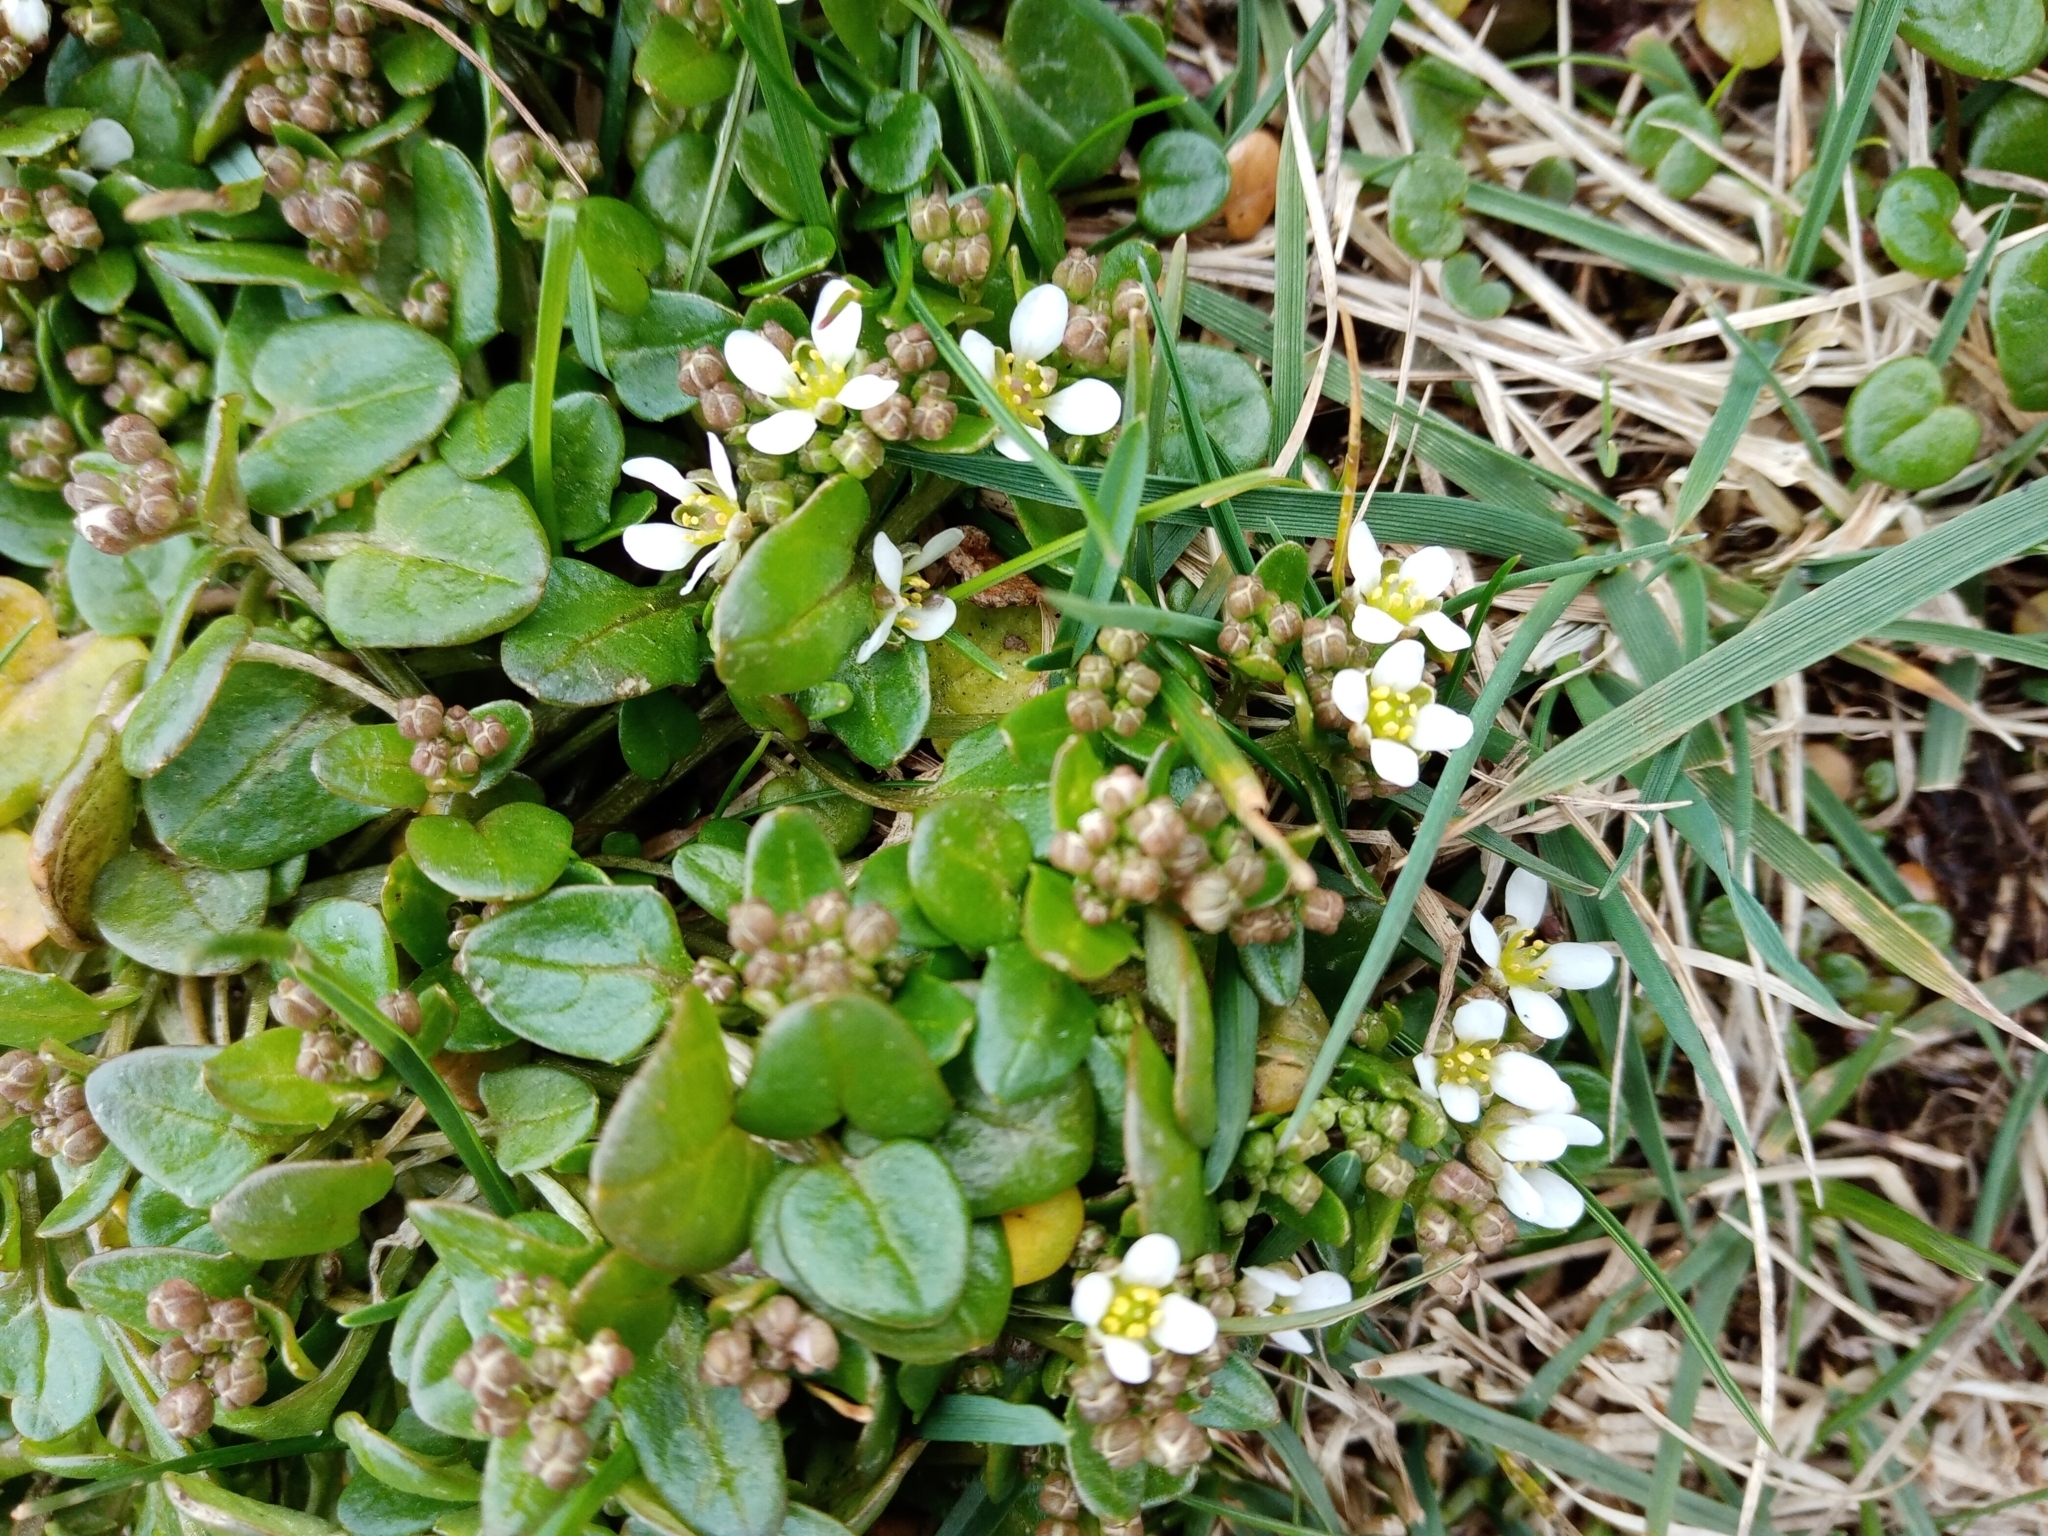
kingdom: Plantae
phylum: Tracheophyta
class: Magnoliopsida
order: Brassicales
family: Brassicaceae
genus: Cochlearia
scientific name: Cochlearia danica
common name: Early scurvygrass
